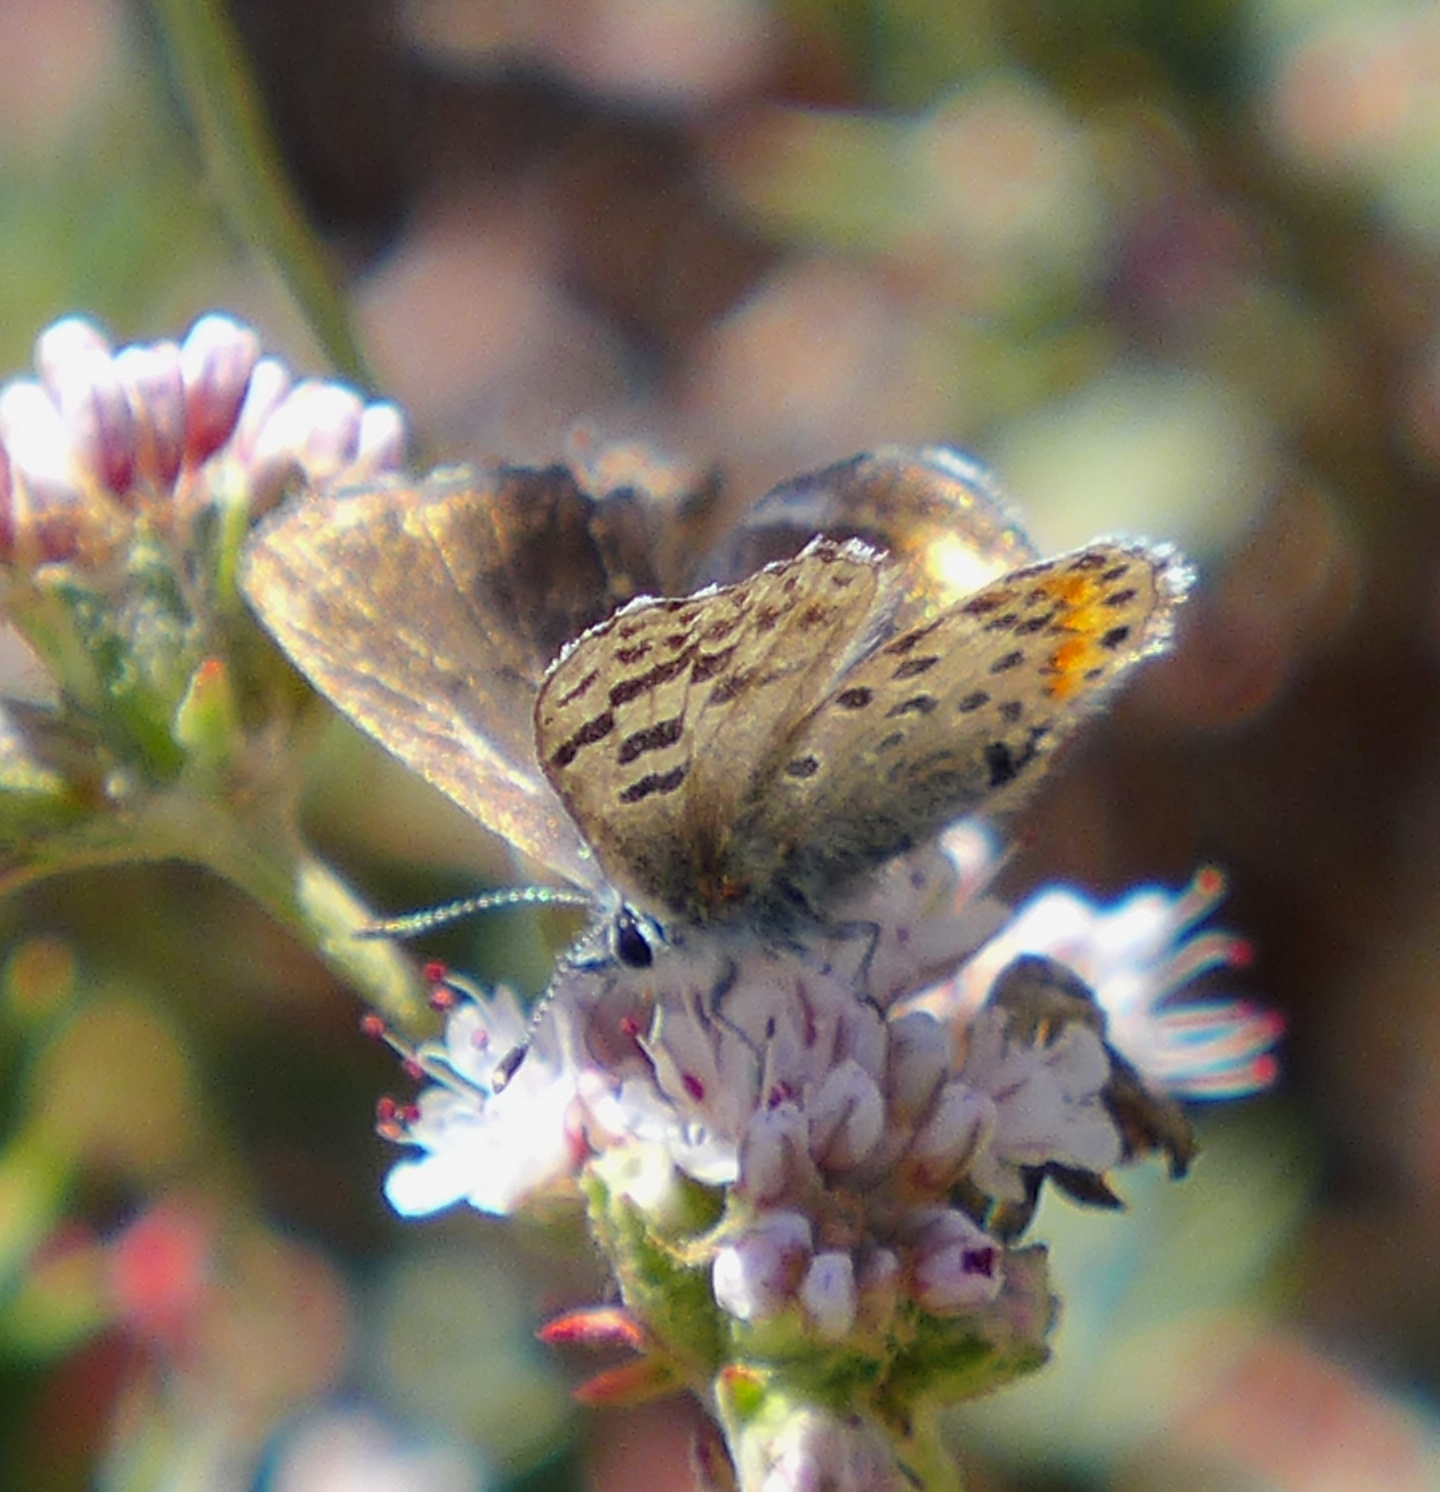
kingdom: Animalia
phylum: Arthropoda
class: Insecta
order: Lepidoptera
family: Lycaenidae
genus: Euphilotes
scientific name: Euphilotes enoptes
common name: Dotted blue
